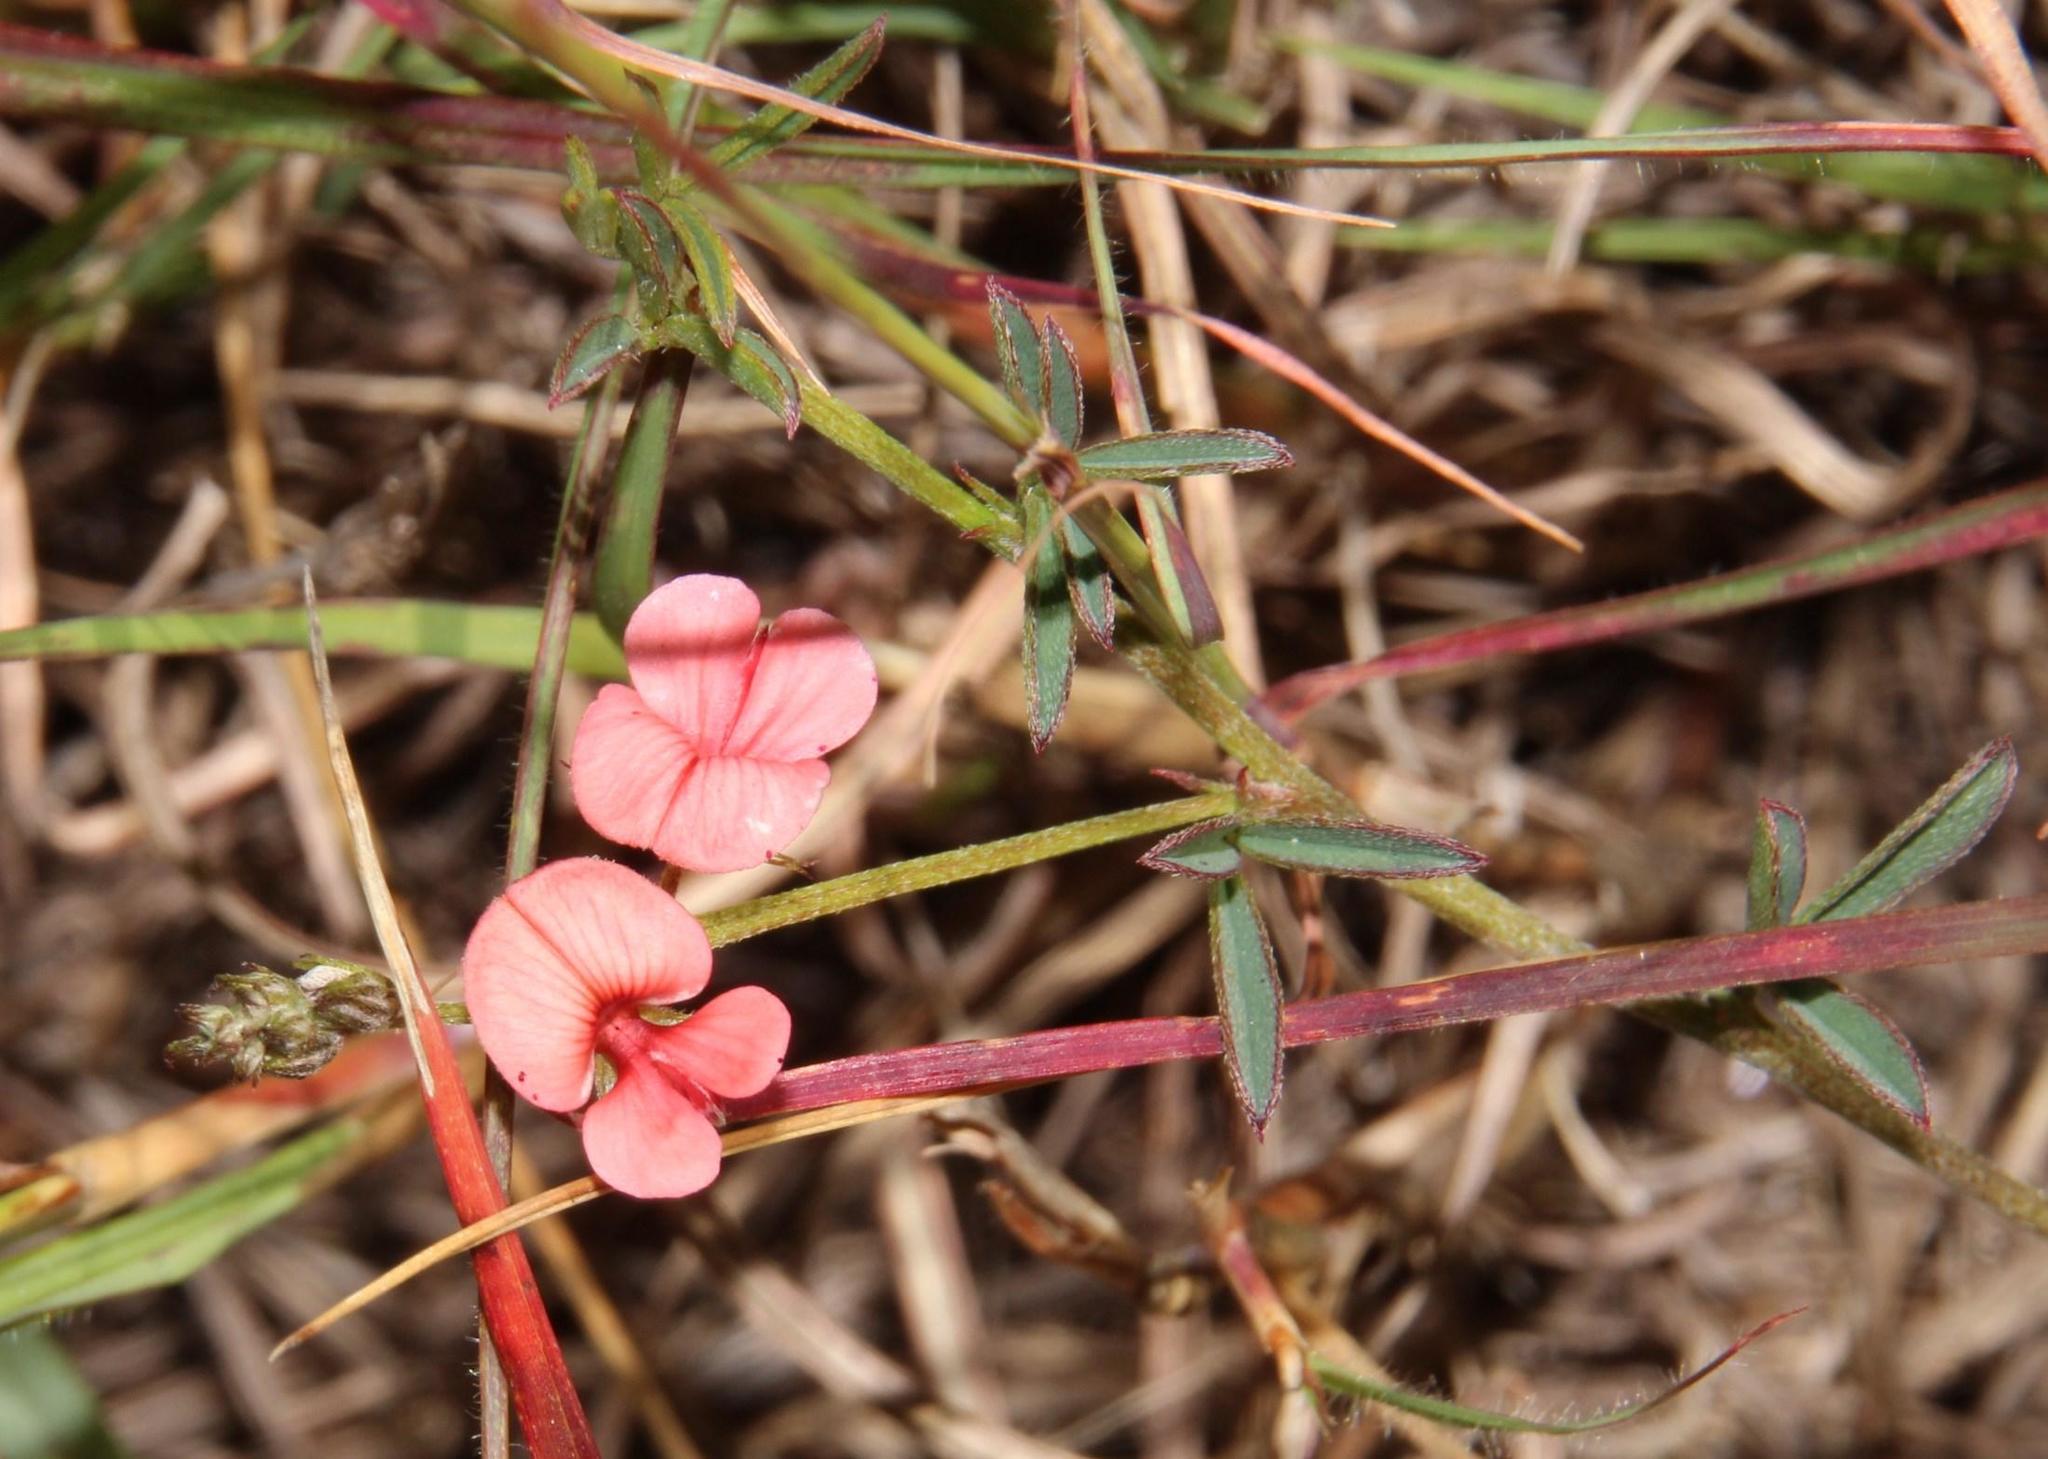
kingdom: Plantae
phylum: Tracheophyta
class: Magnoliopsida
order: Fabales
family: Fabaceae
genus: Indigofera
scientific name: Indigofera disticha
